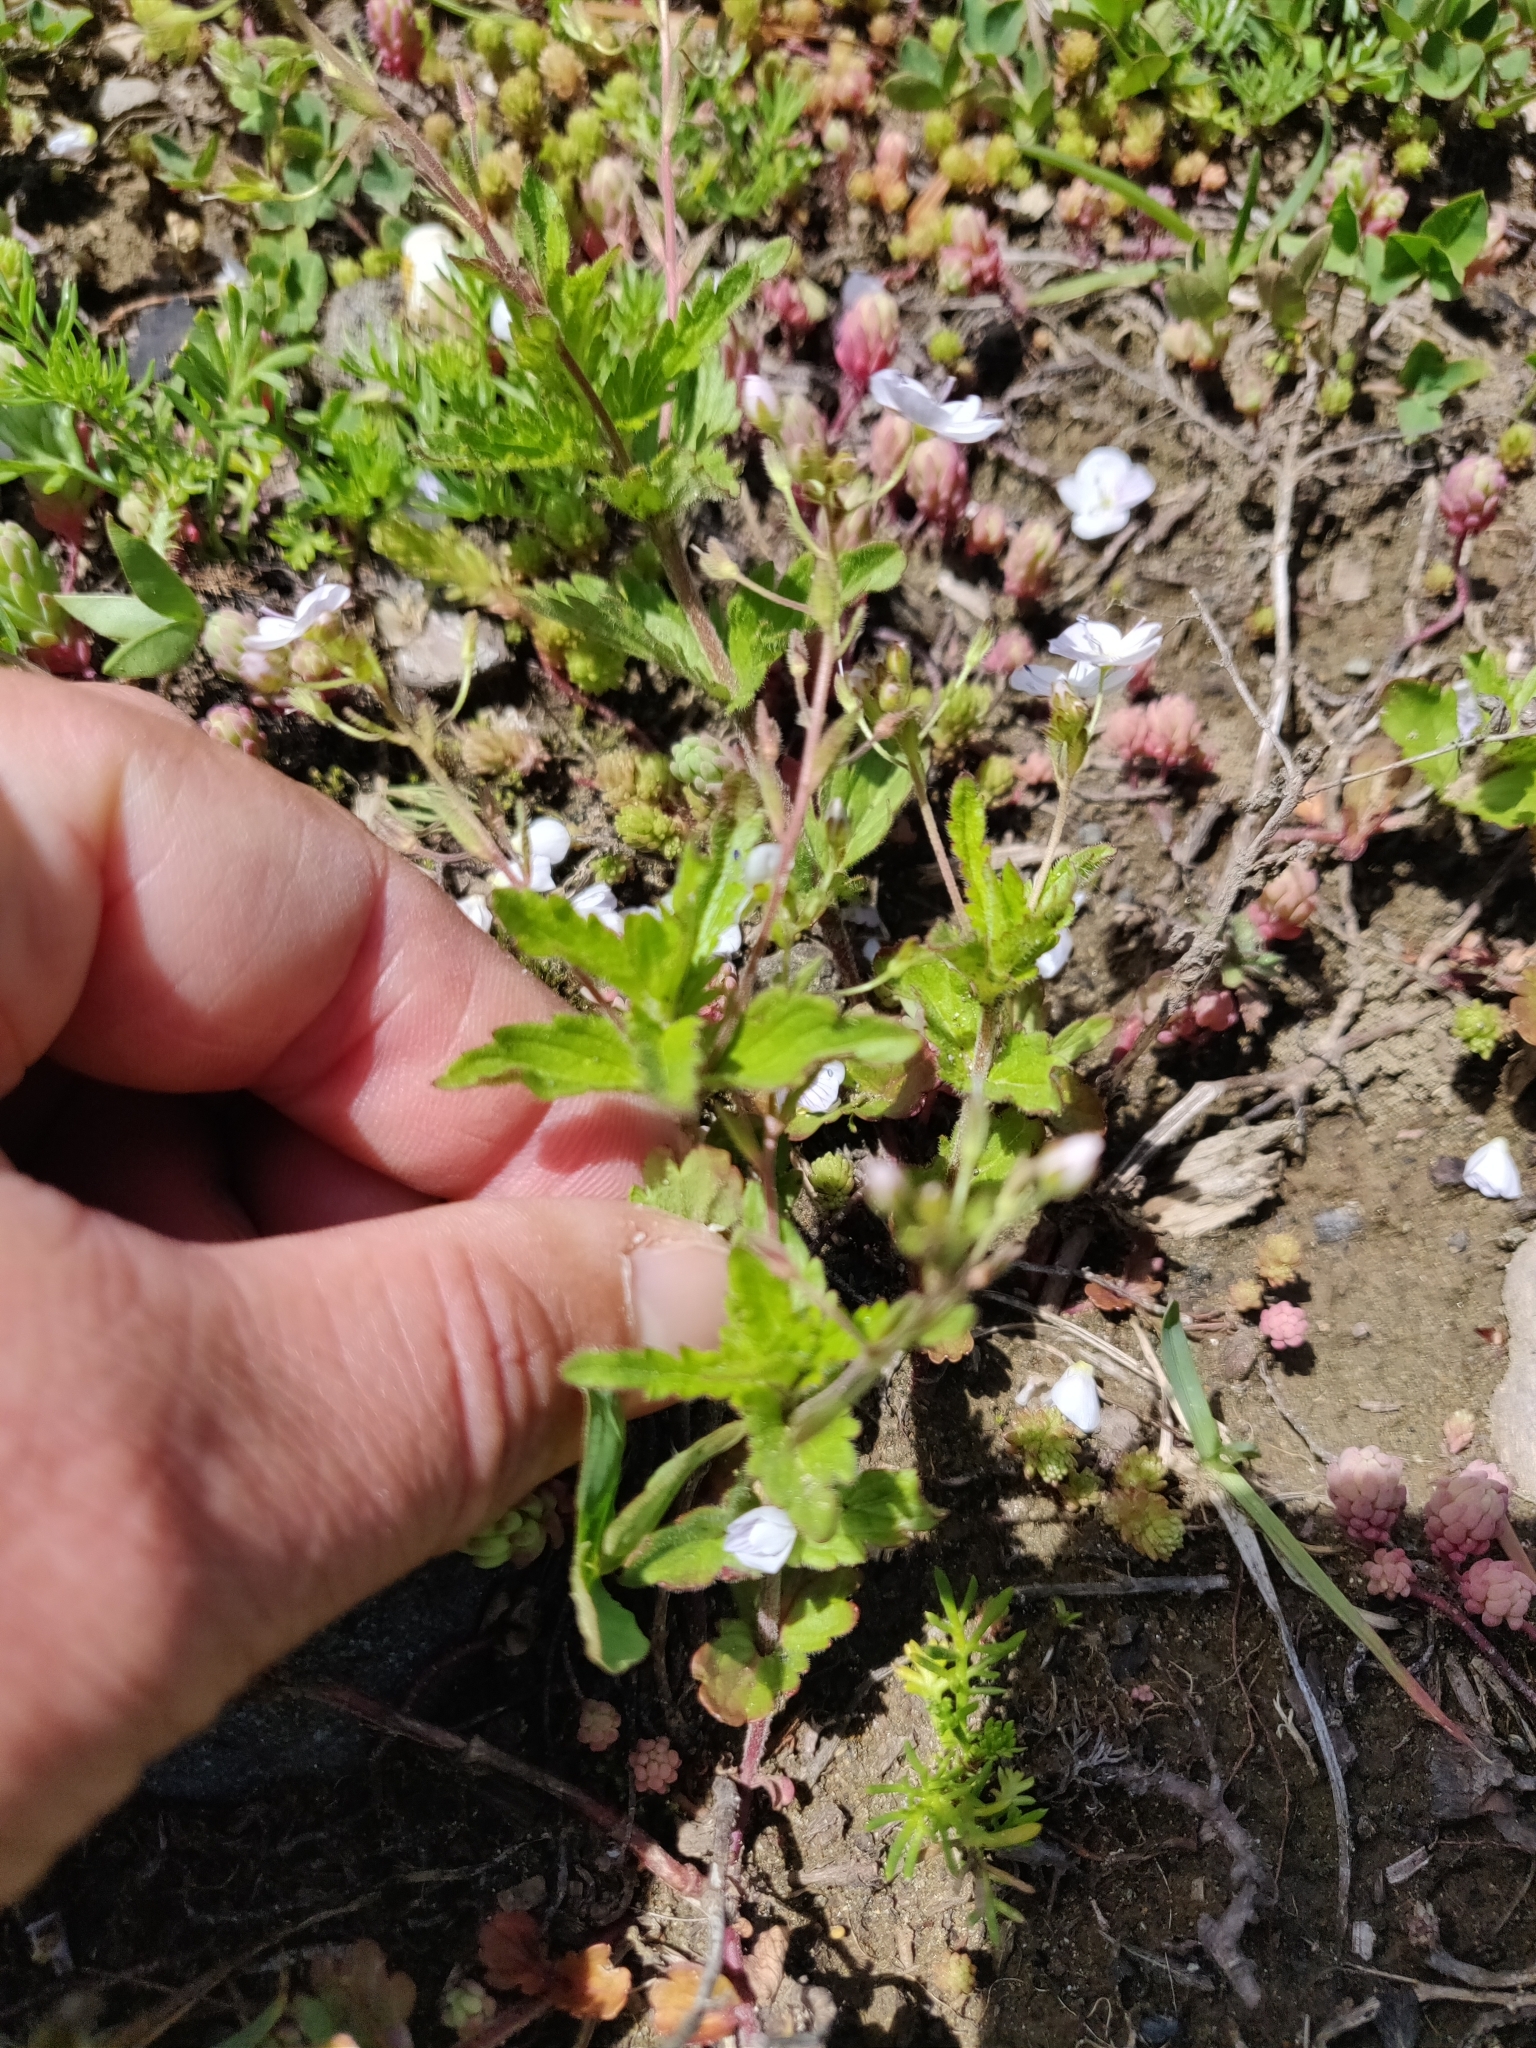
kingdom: Plantae
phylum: Tracheophyta
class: Magnoliopsida
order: Lamiales
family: Plantaginaceae
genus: Veronica
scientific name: Veronica peduncularis
